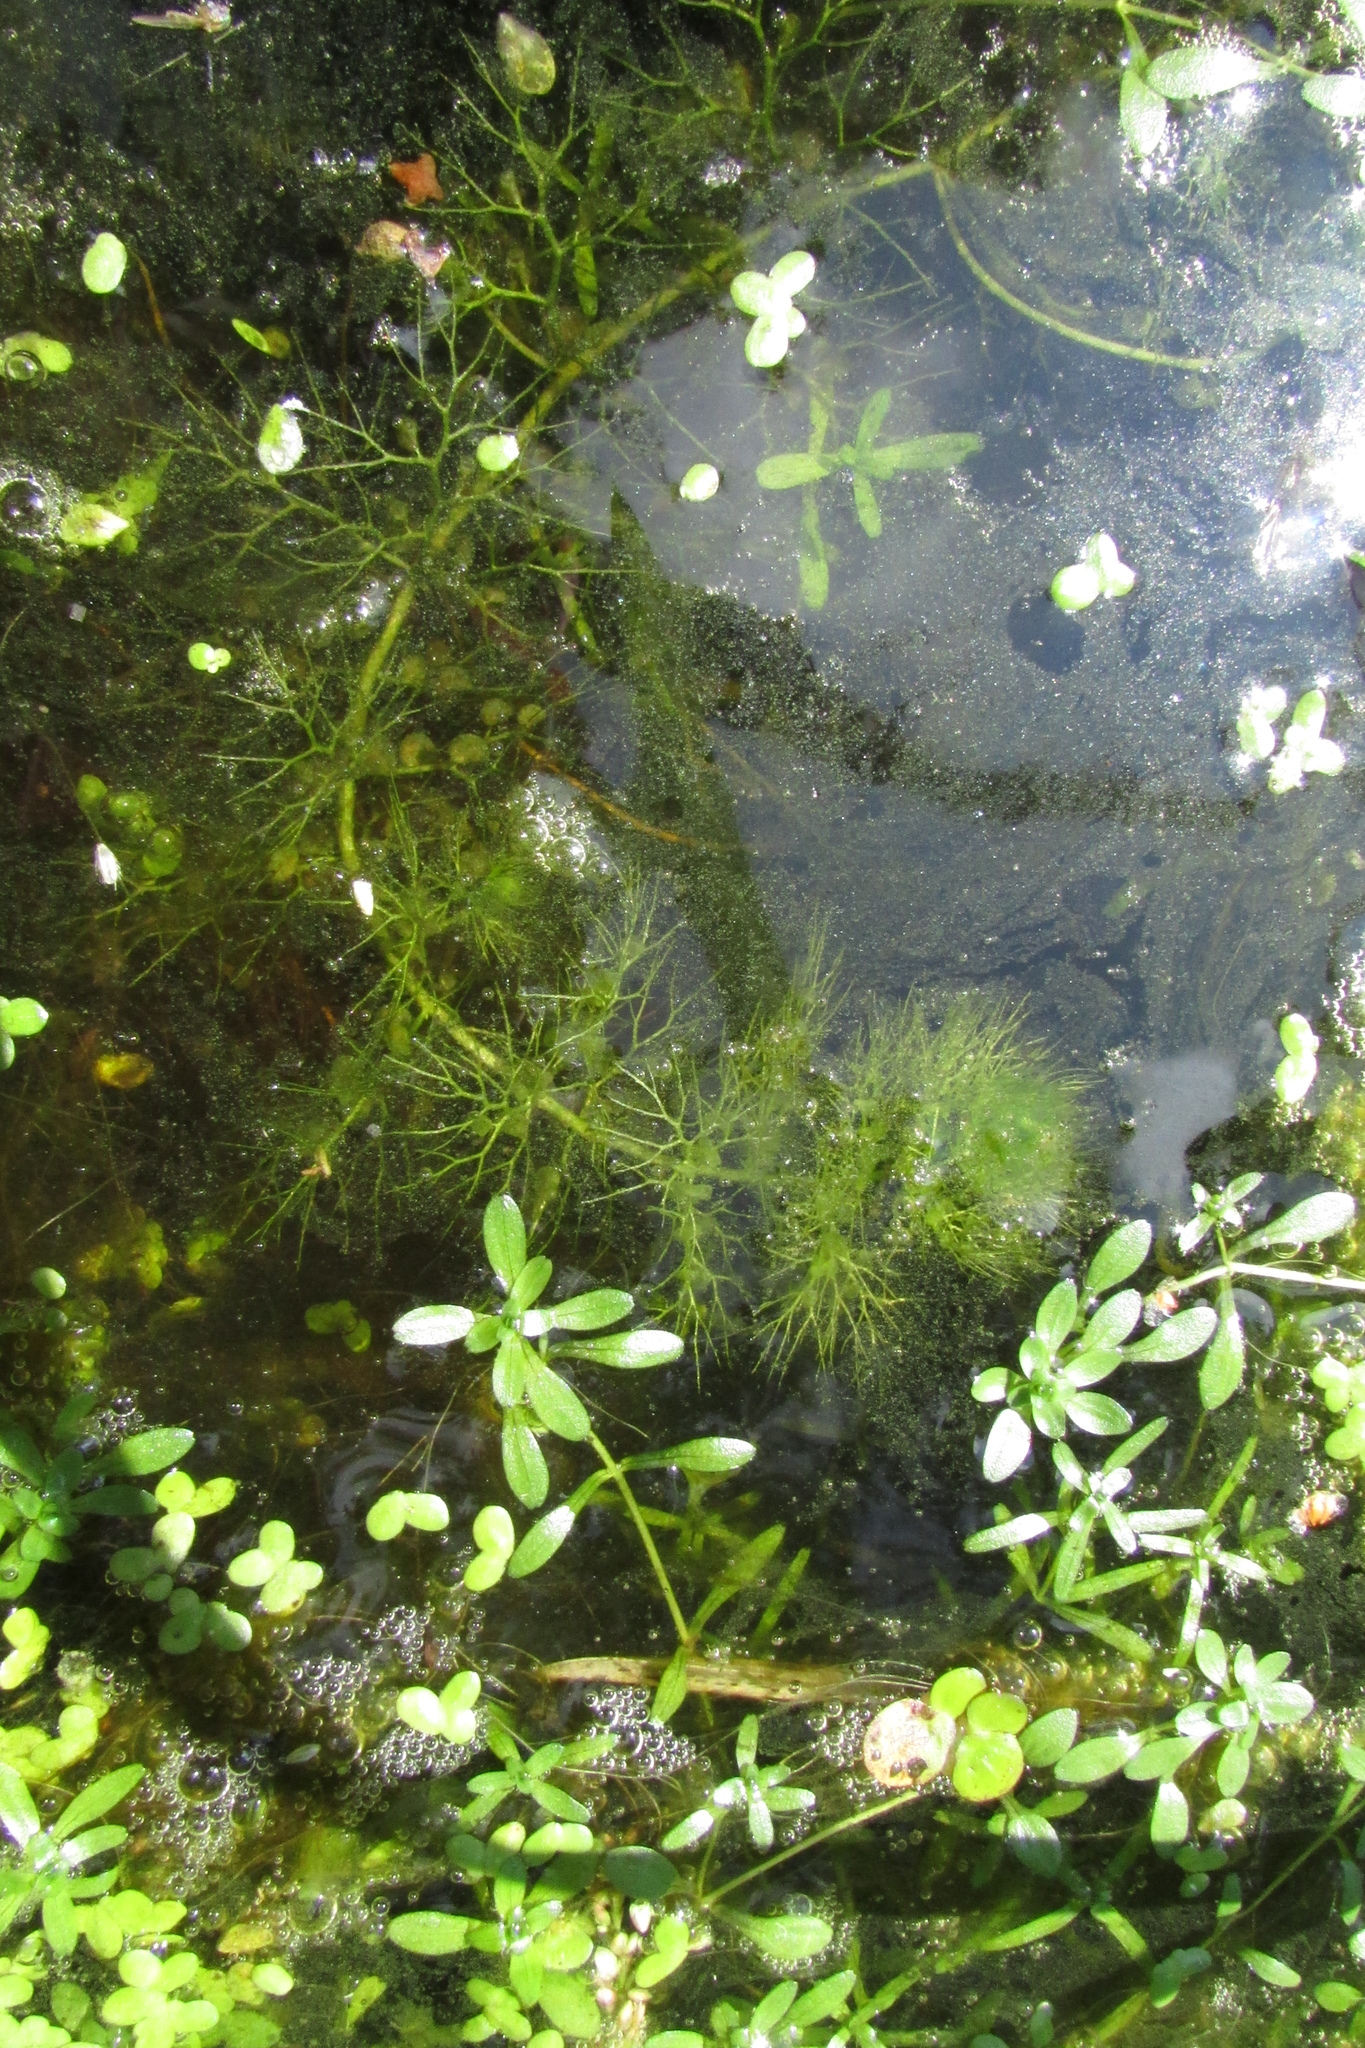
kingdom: Plantae
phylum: Tracheophyta
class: Magnoliopsida
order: Lamiales
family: Lentibulariaceae
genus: Utricularia
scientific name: Utricularia vulgaris
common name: Greater bladderwort
